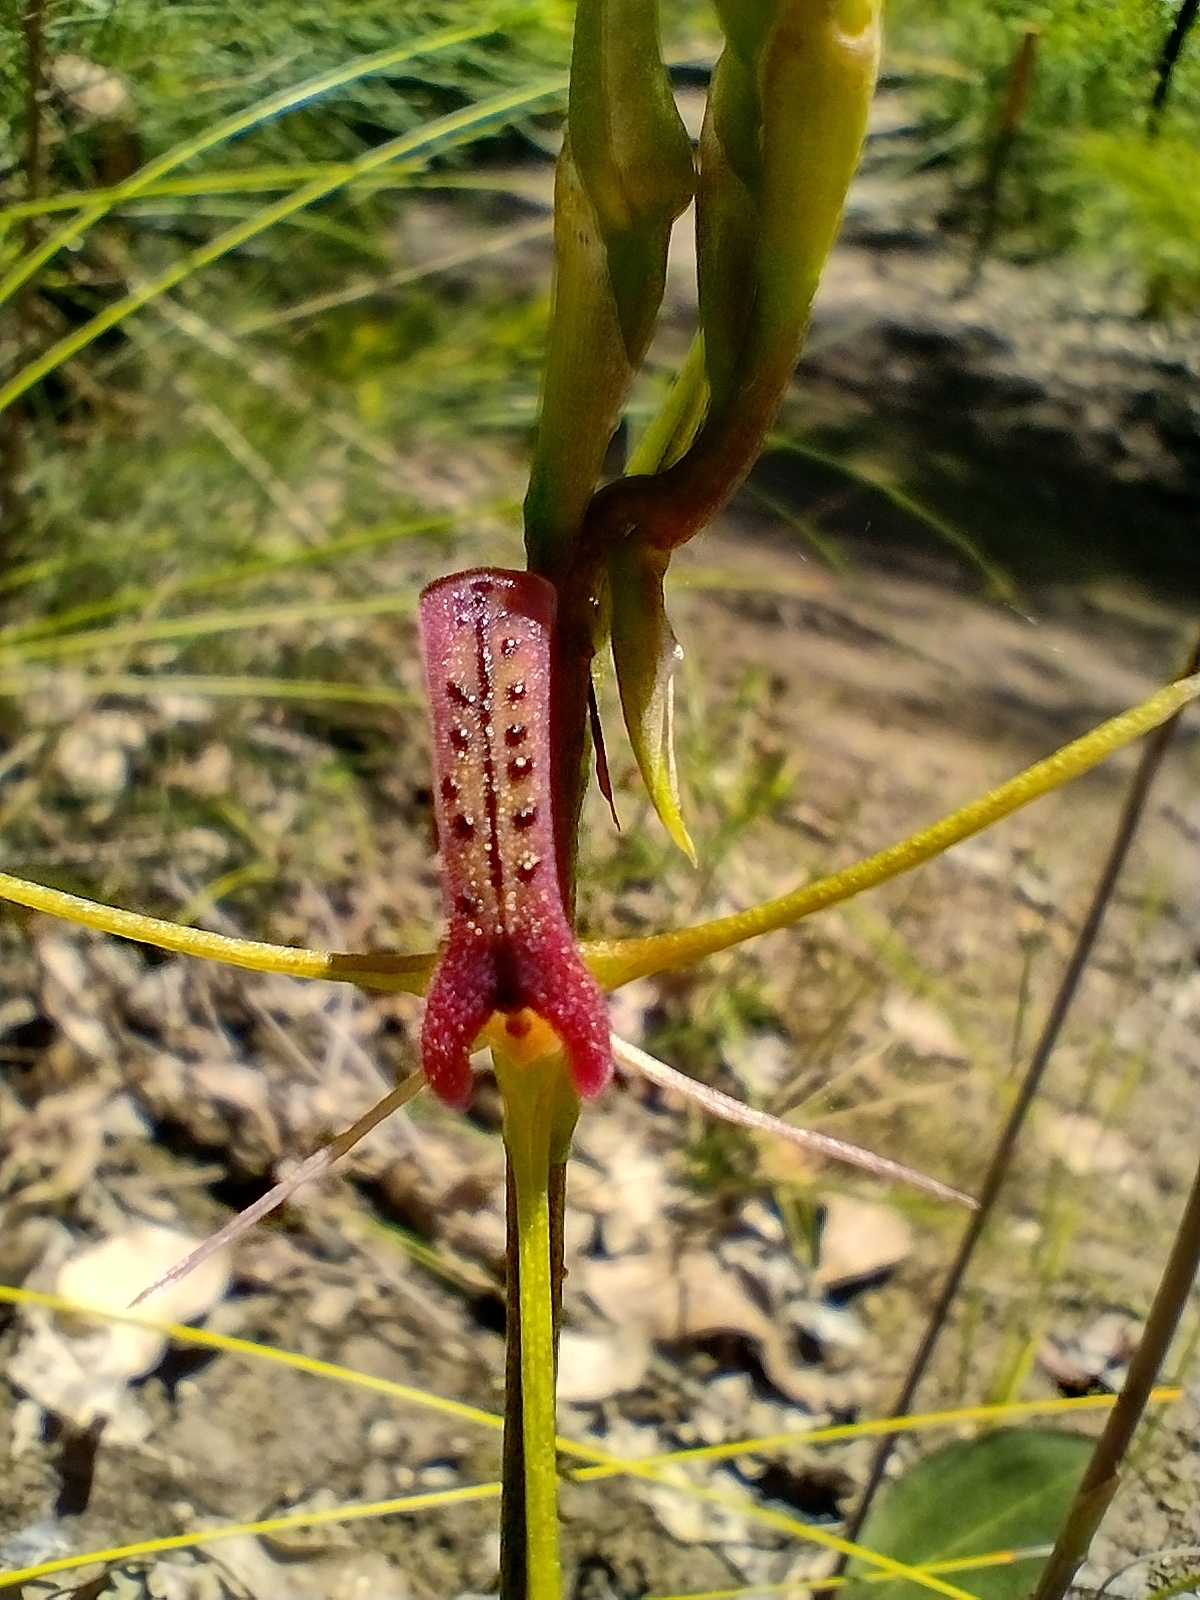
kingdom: Plantae
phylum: Tracheophyta
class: Liliopsida
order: Asparagales
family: Orchidaceae
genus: Cryptostylis
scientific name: Cryptostylis leptochila
